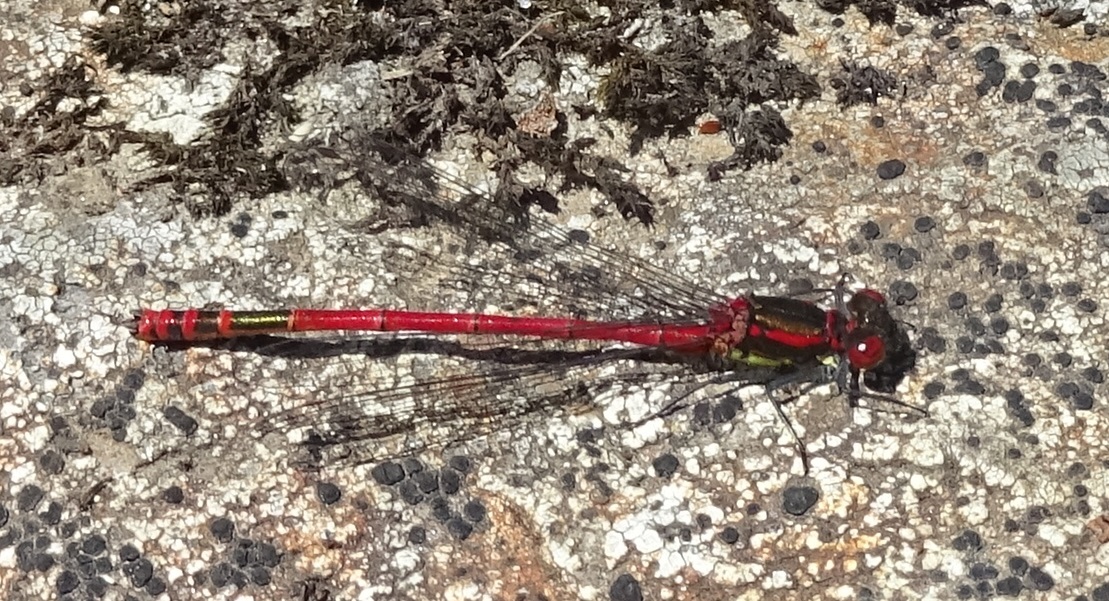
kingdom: Animalia
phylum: Arthropoda
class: Insecta
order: Odonata
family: Coenagrionidae
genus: Pyrrhosoma
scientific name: Pyrrhosoma nymphula
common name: Large red damsel
